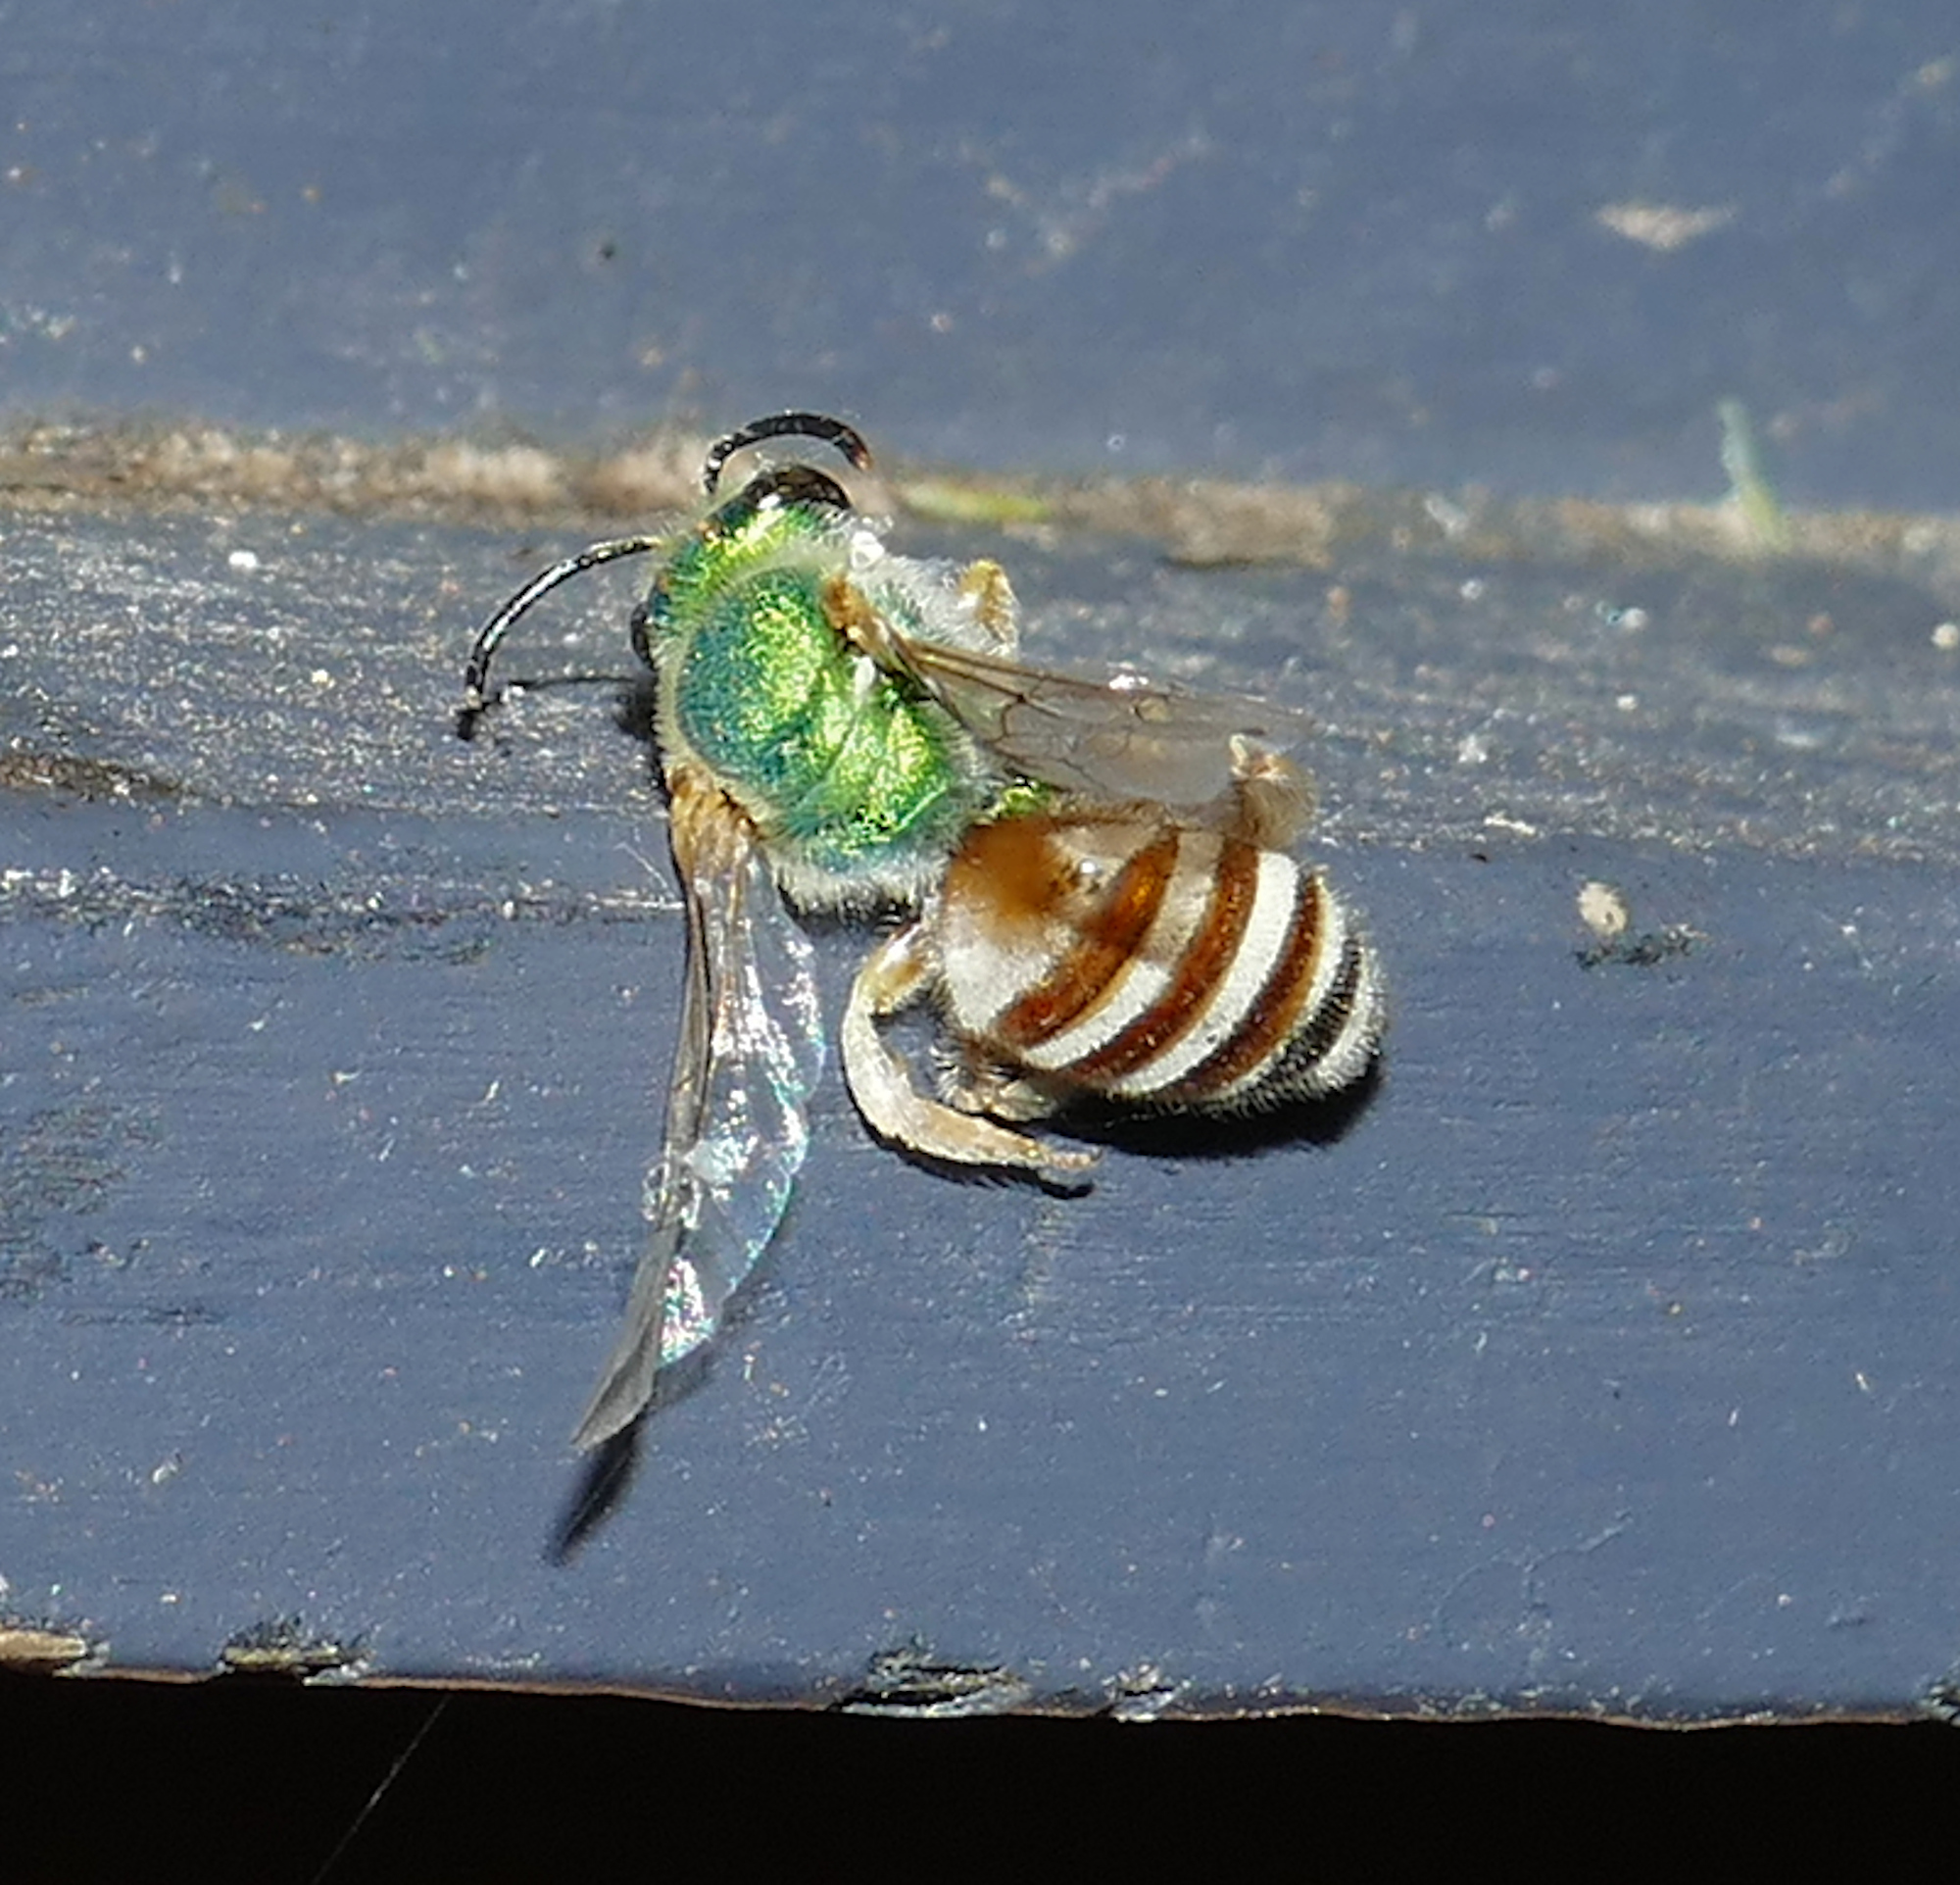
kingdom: Animalia
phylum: Arthropoda
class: Insecta
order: Hymenoptera
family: Halictidae
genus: Agapostemon
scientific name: Agapostemon melliventris
